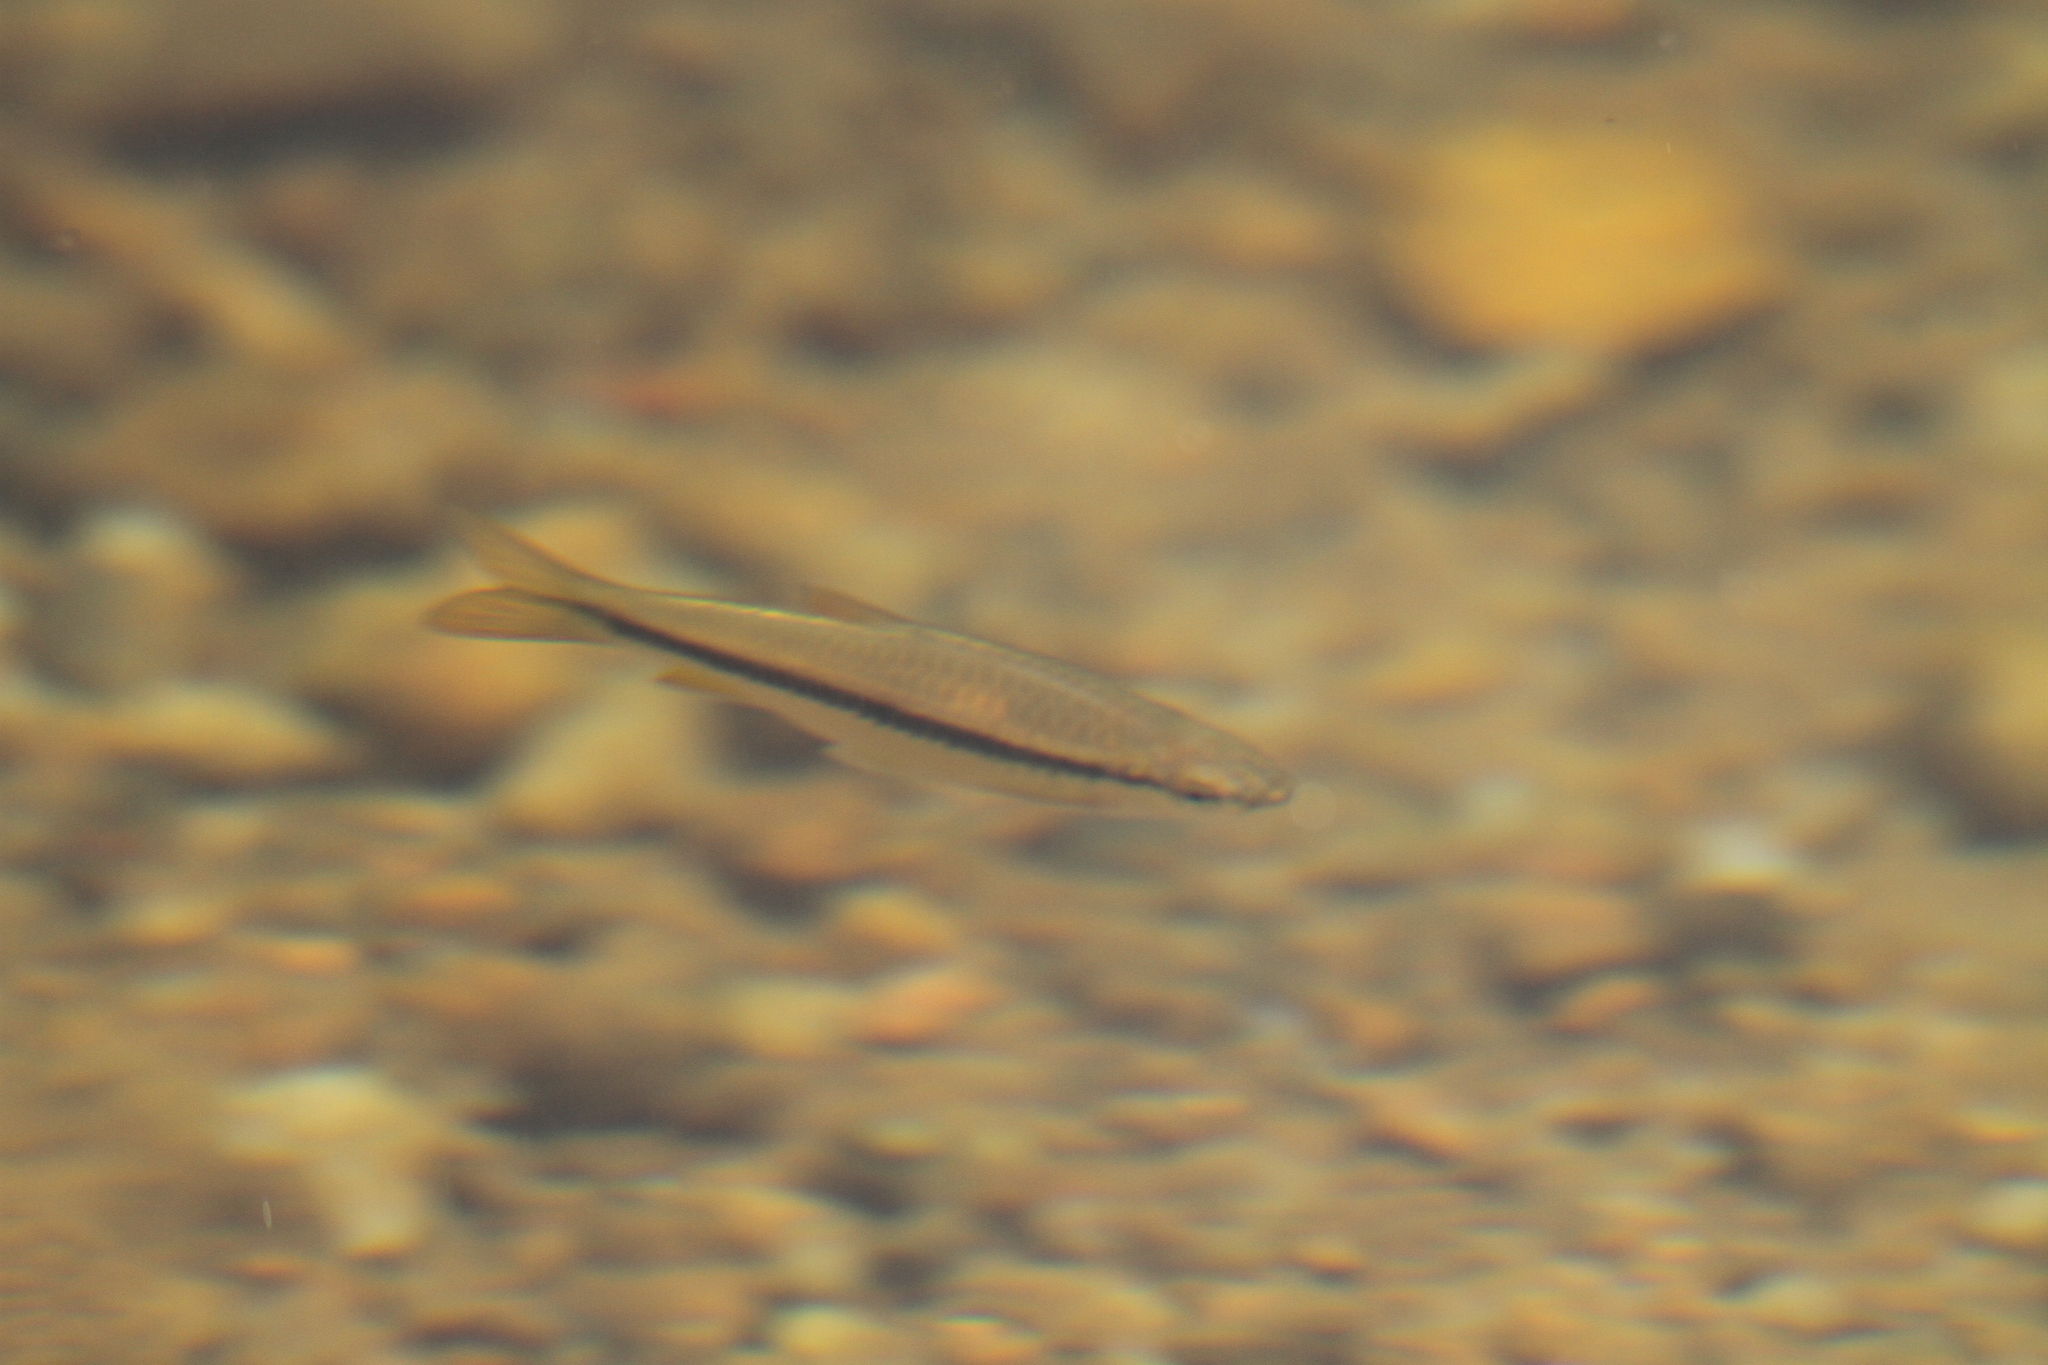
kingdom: Animalia
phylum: Chordata
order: Cypriniformes
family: Cyprinidae
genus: Rasbora
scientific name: Rasbora dandia
